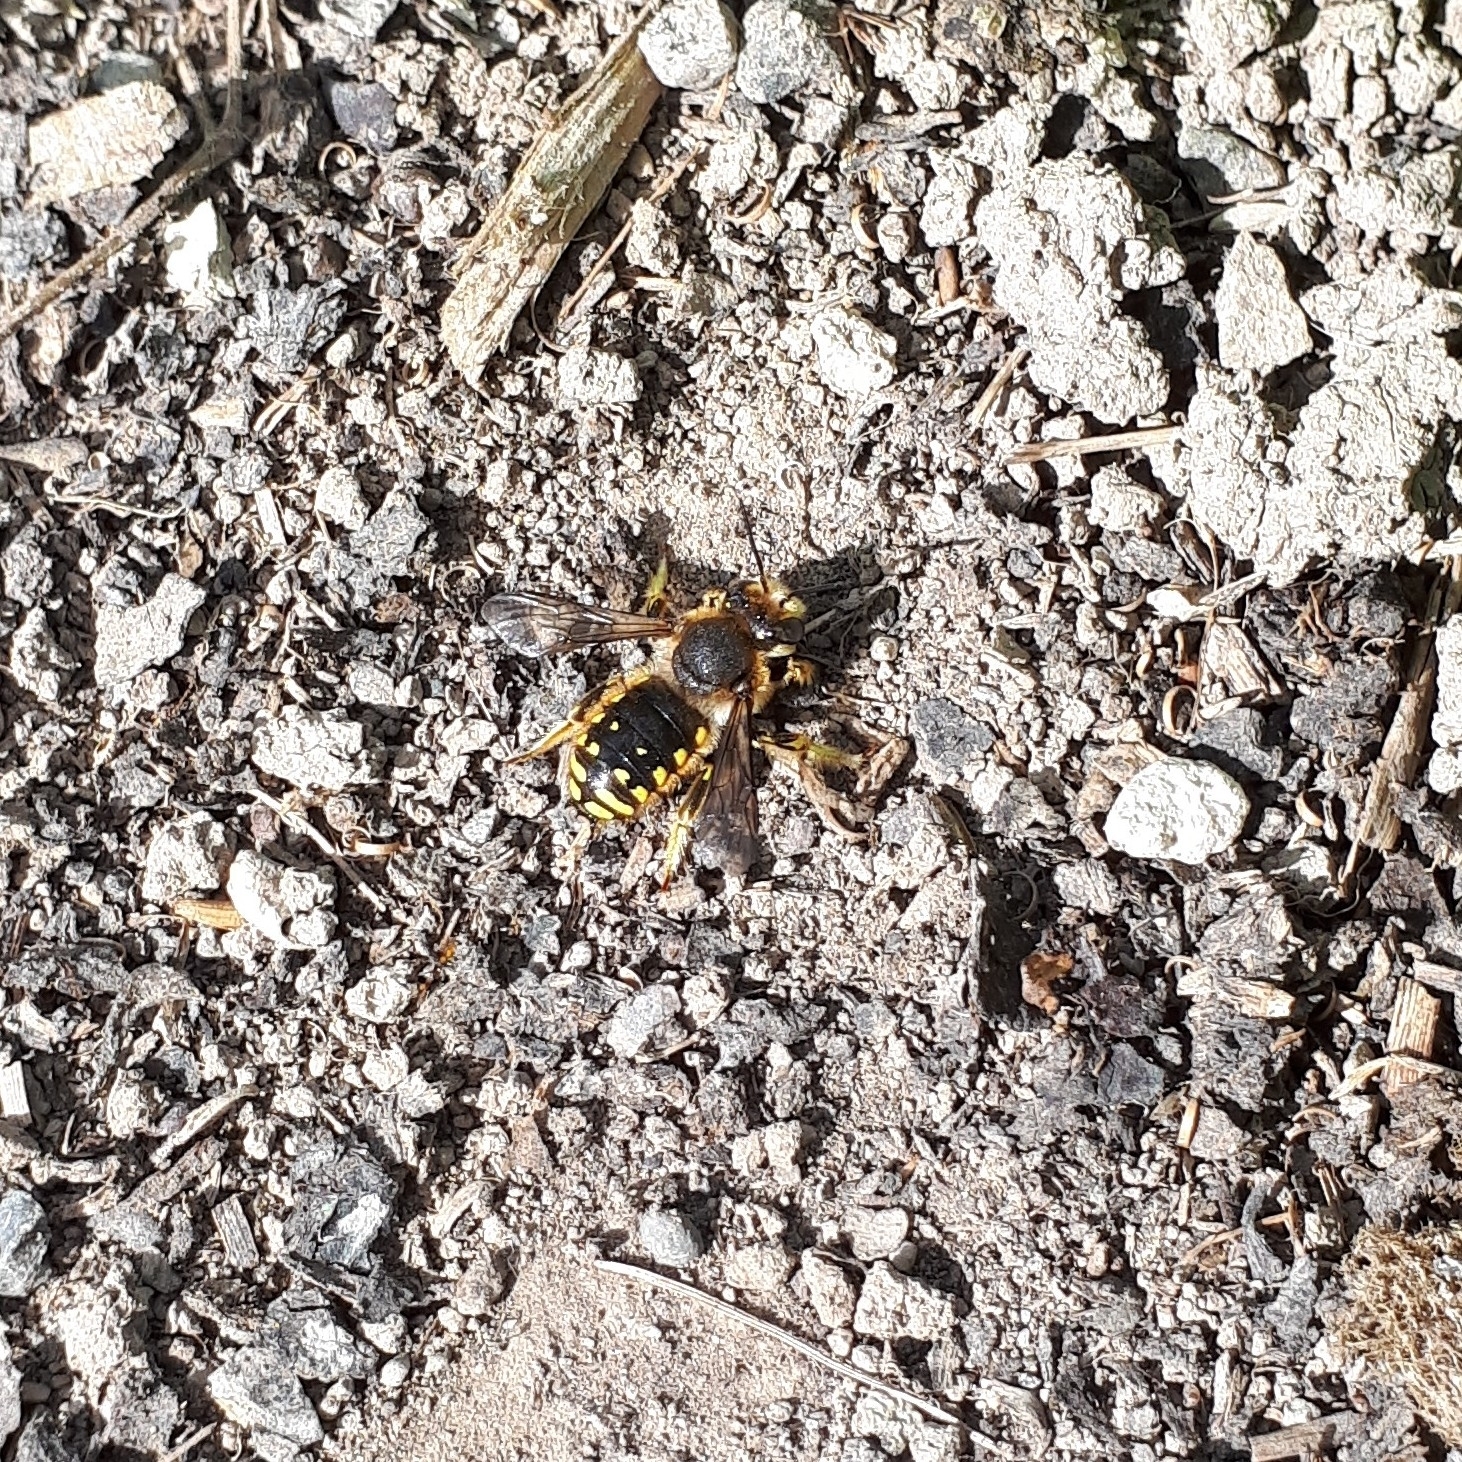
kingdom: Animalia
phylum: Arthropoda
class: Insecta
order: Hymenoptera
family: Megachilidae
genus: Anthidium
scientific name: Anthidium manicatum
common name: Wool carder bee
